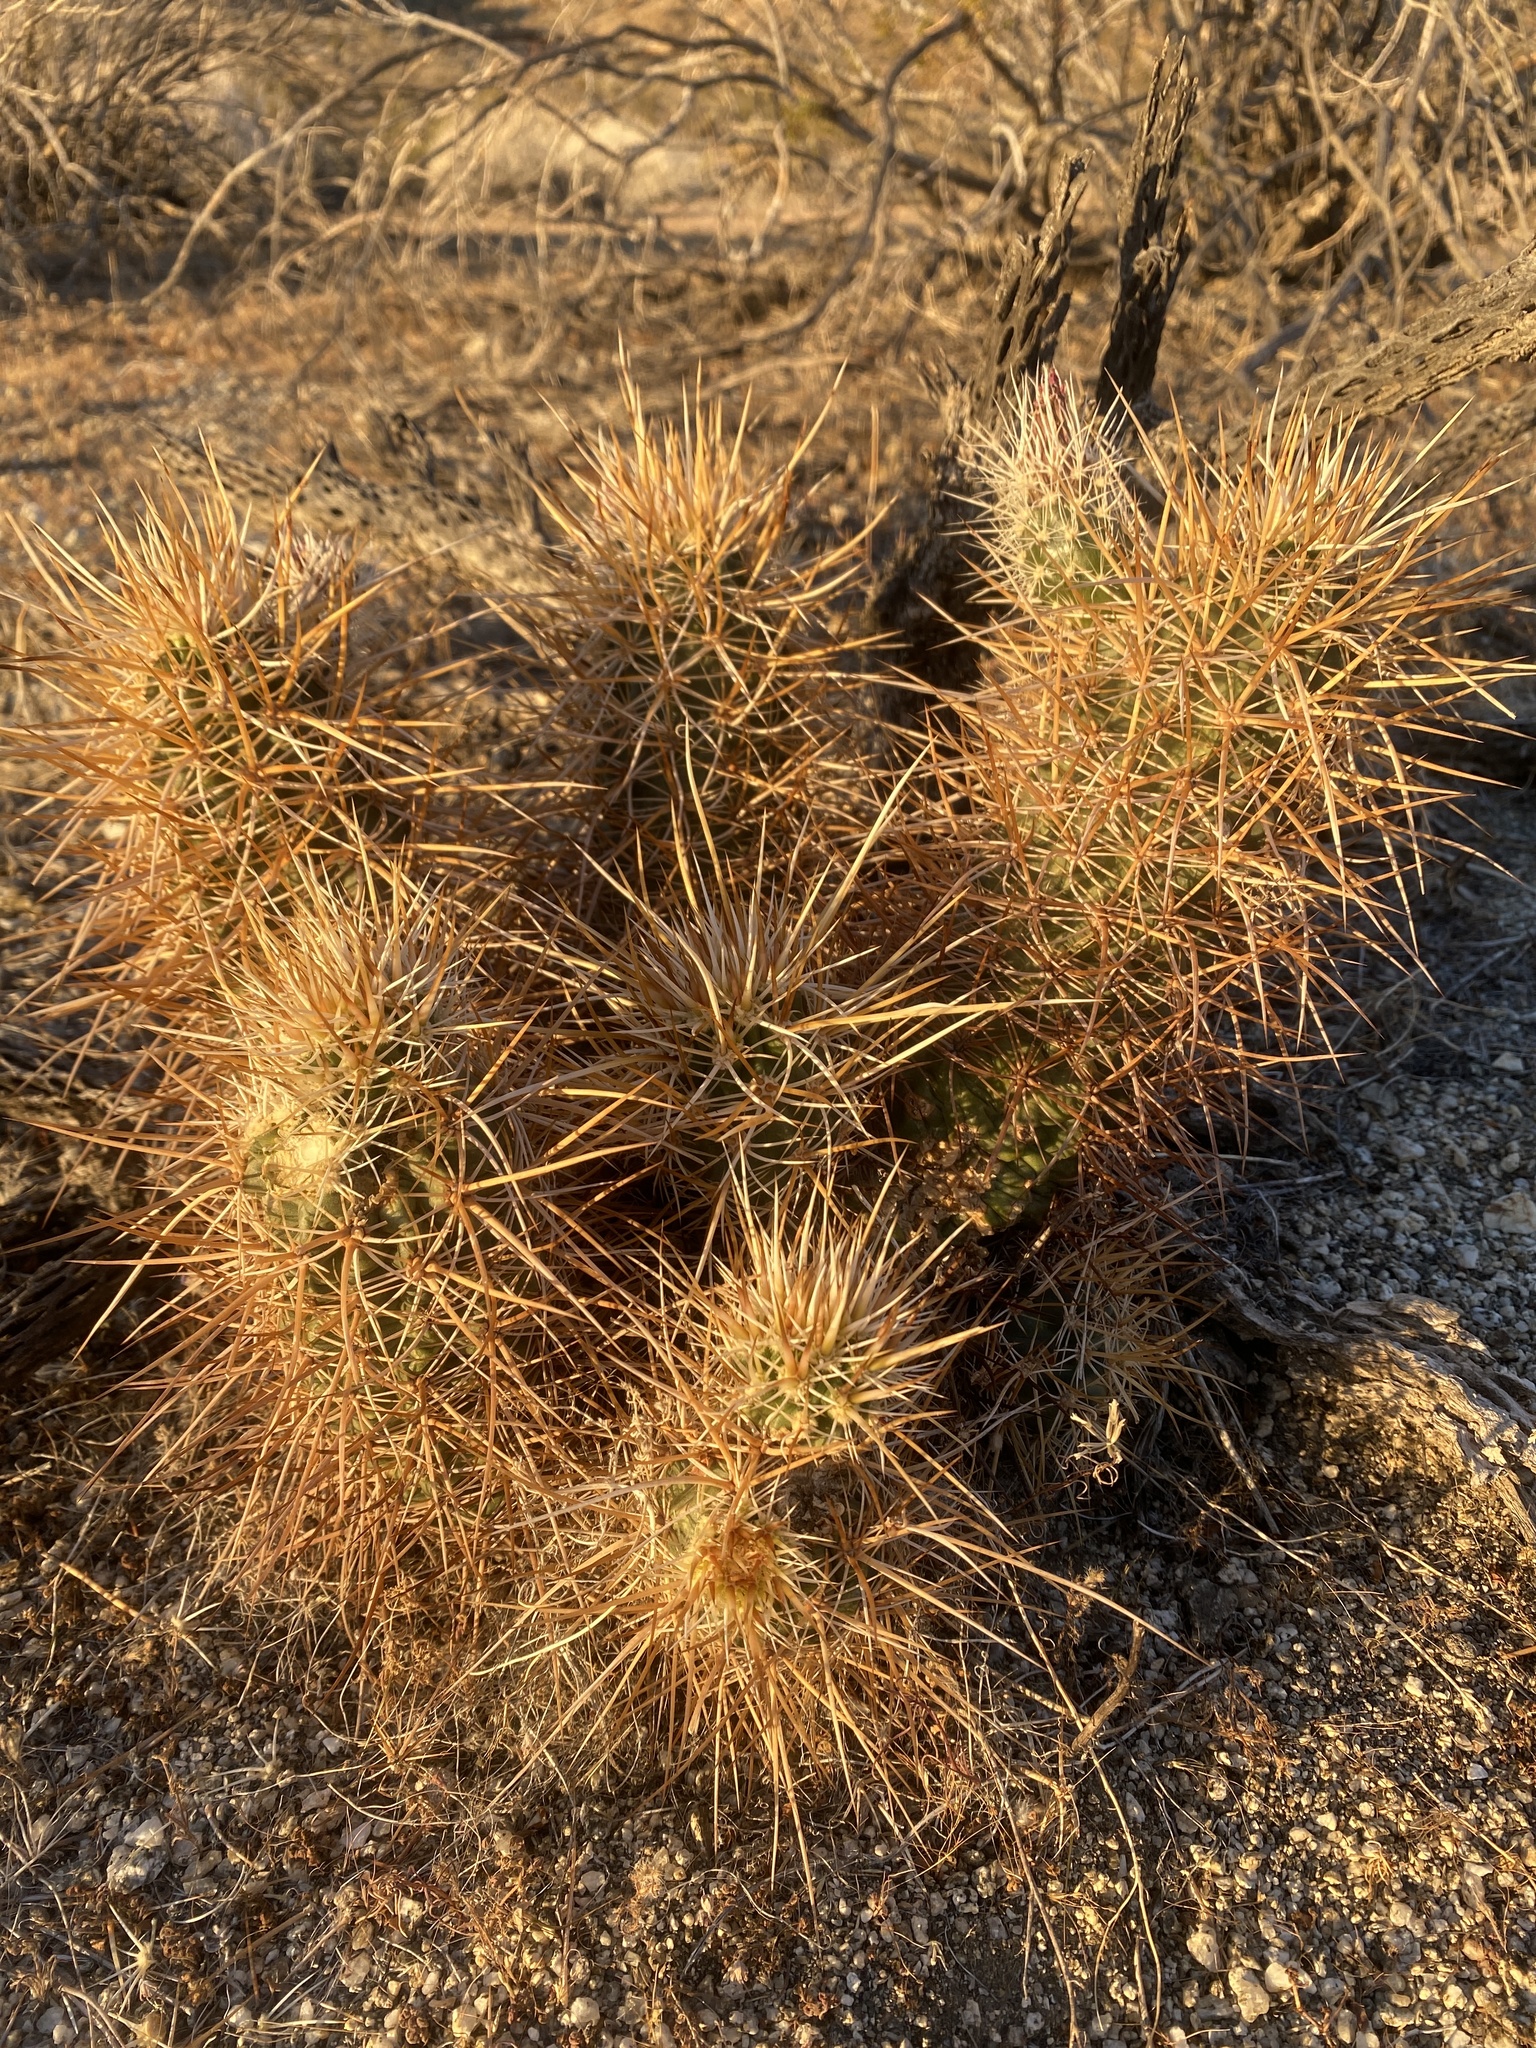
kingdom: Plantae
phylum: Tracheophyta
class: Magnoliopsida
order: Caryophyllales
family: Cactaceae
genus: Echinocereus
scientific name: Echinocereus engelmannii
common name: Engelmann's hedgehog cactus
